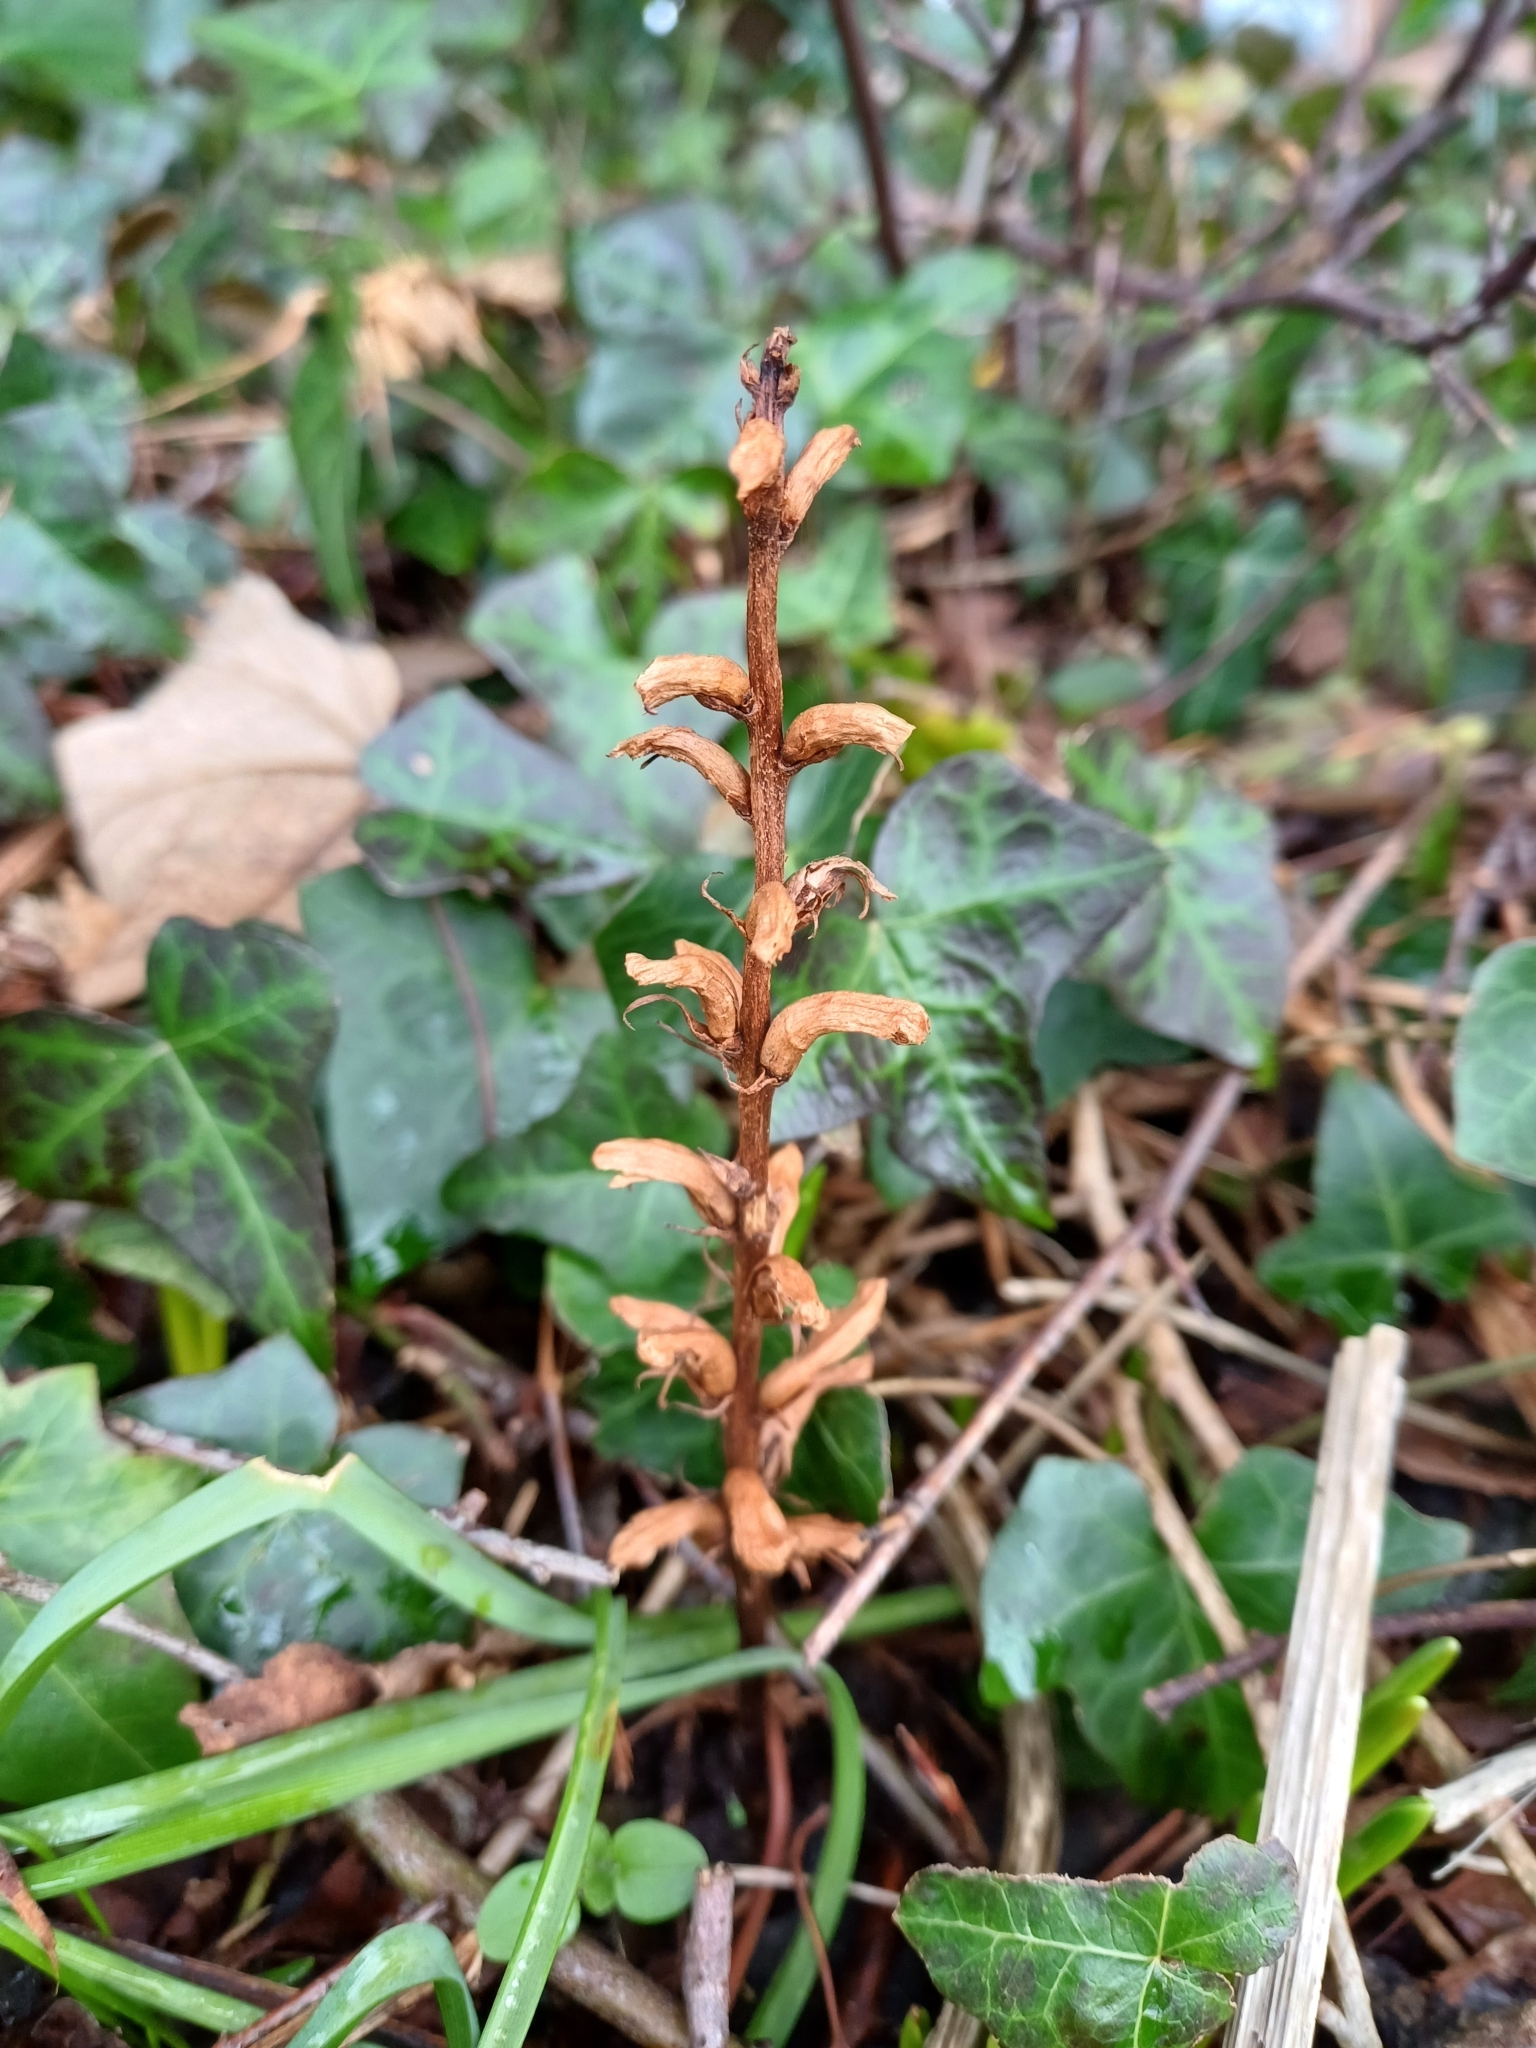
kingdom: Plantae
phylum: Tracheophyta
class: Magnoliopsida
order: Lamiales
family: Orobanchaceae
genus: Orobanche
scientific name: Orobanche hederae
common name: Ivy broomrape
